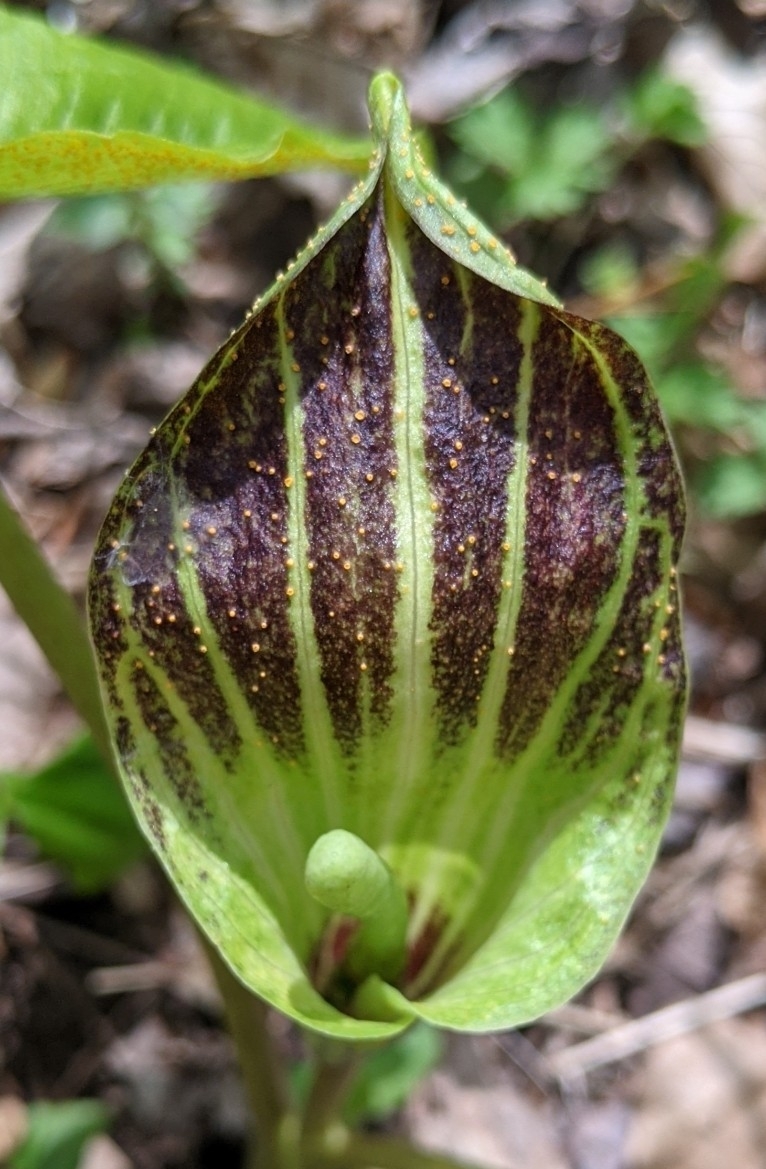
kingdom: Fungi
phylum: Basidiomycota
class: Pucciniomycetes
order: Pucciniales
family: Pucciniaceae
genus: Uromyces
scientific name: Uromyces ari-triphylli
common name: Jack-in-the-pulpit rust
